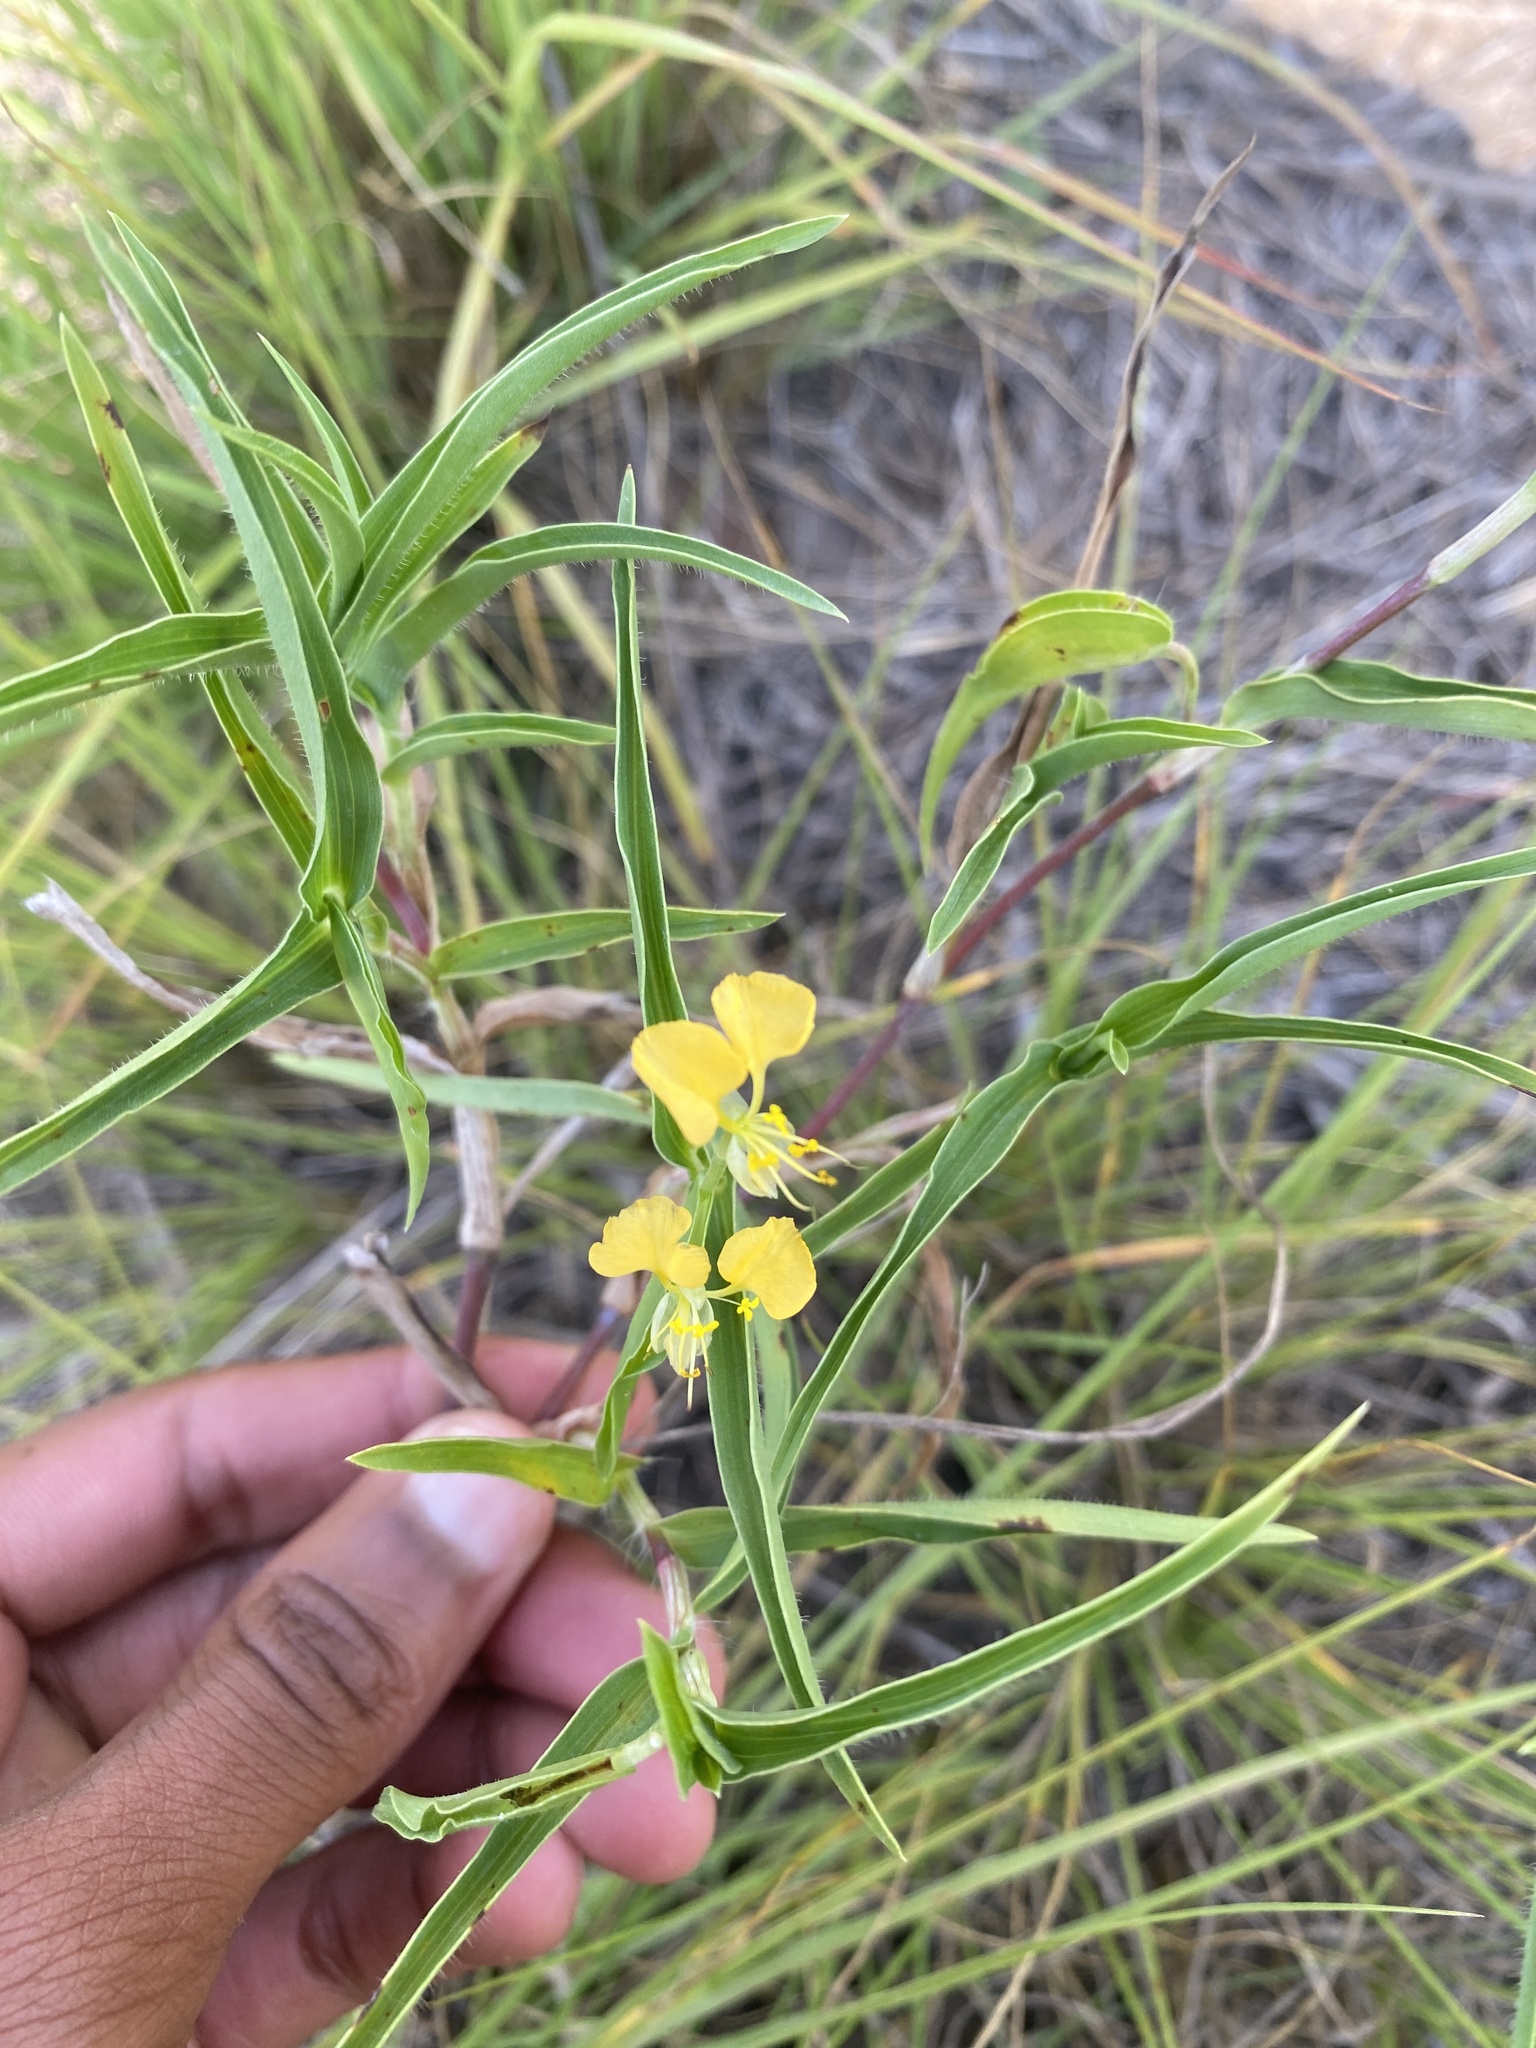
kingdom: Plantae
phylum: Tracheophyta
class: Liliopsida
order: Commelinales
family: Commelinaceae
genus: Commelina
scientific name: Commelina africana
